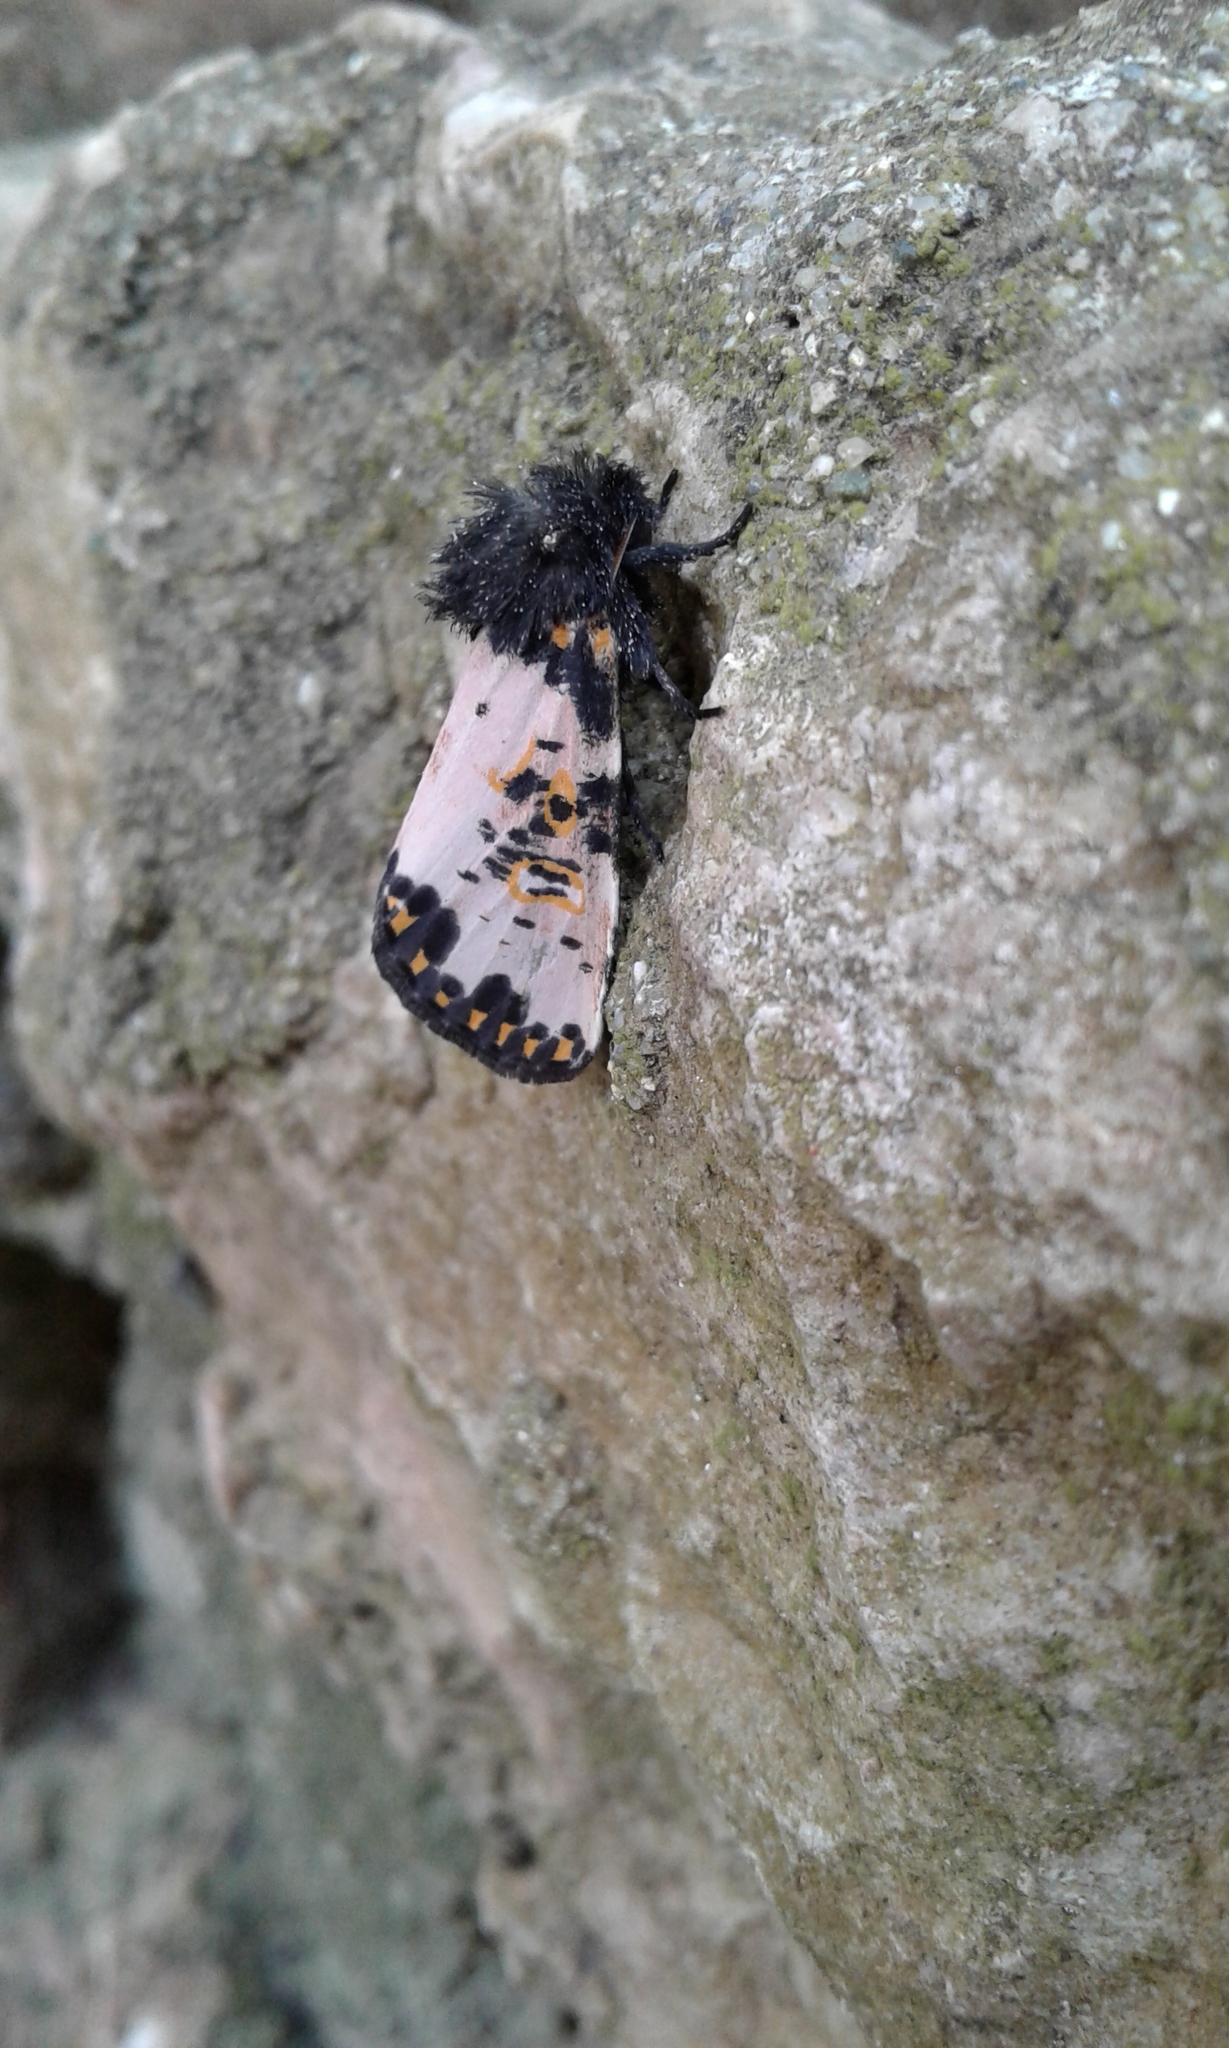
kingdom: Animalia
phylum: Arthropoda
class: Insecta
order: Lepidoptera
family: Noctuidae
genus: Xanthopastis
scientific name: Xanthopastis timais
